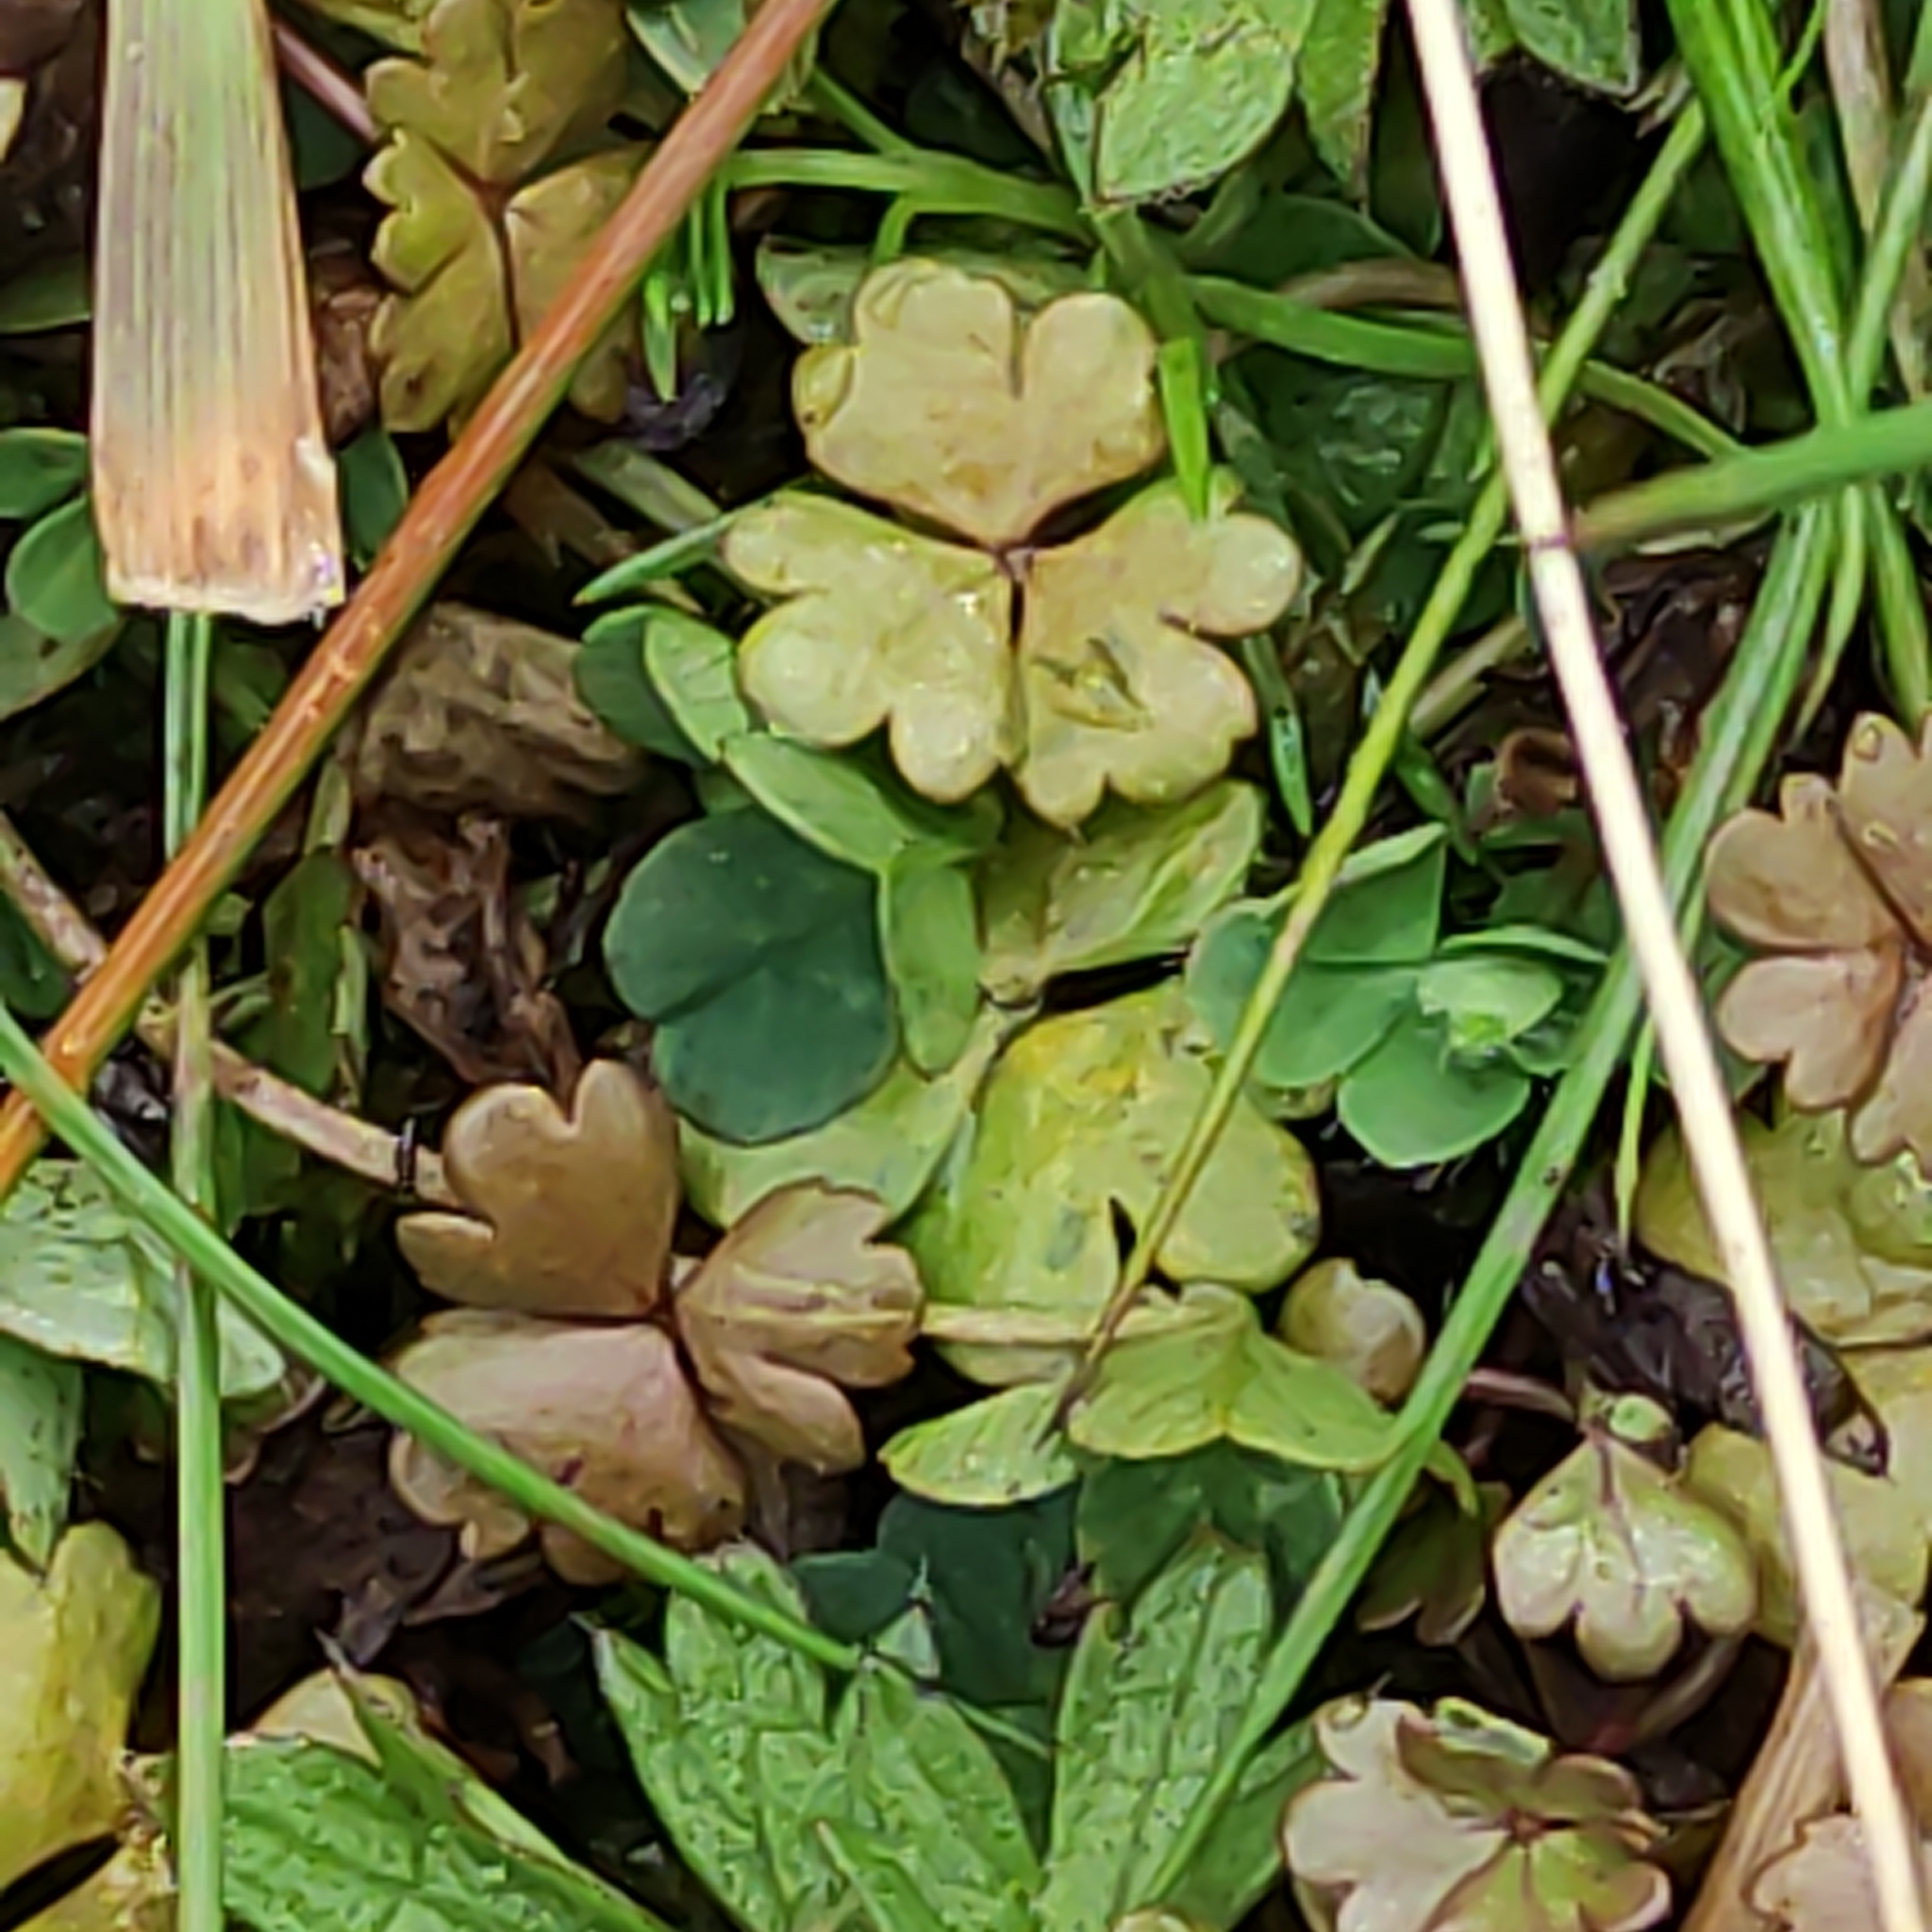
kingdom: Plantae
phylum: Tracheophyta
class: Magnoliopsida
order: Apiales
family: Araliaceae
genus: Hydrocotyle
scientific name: Hydrocotyle sulcata
